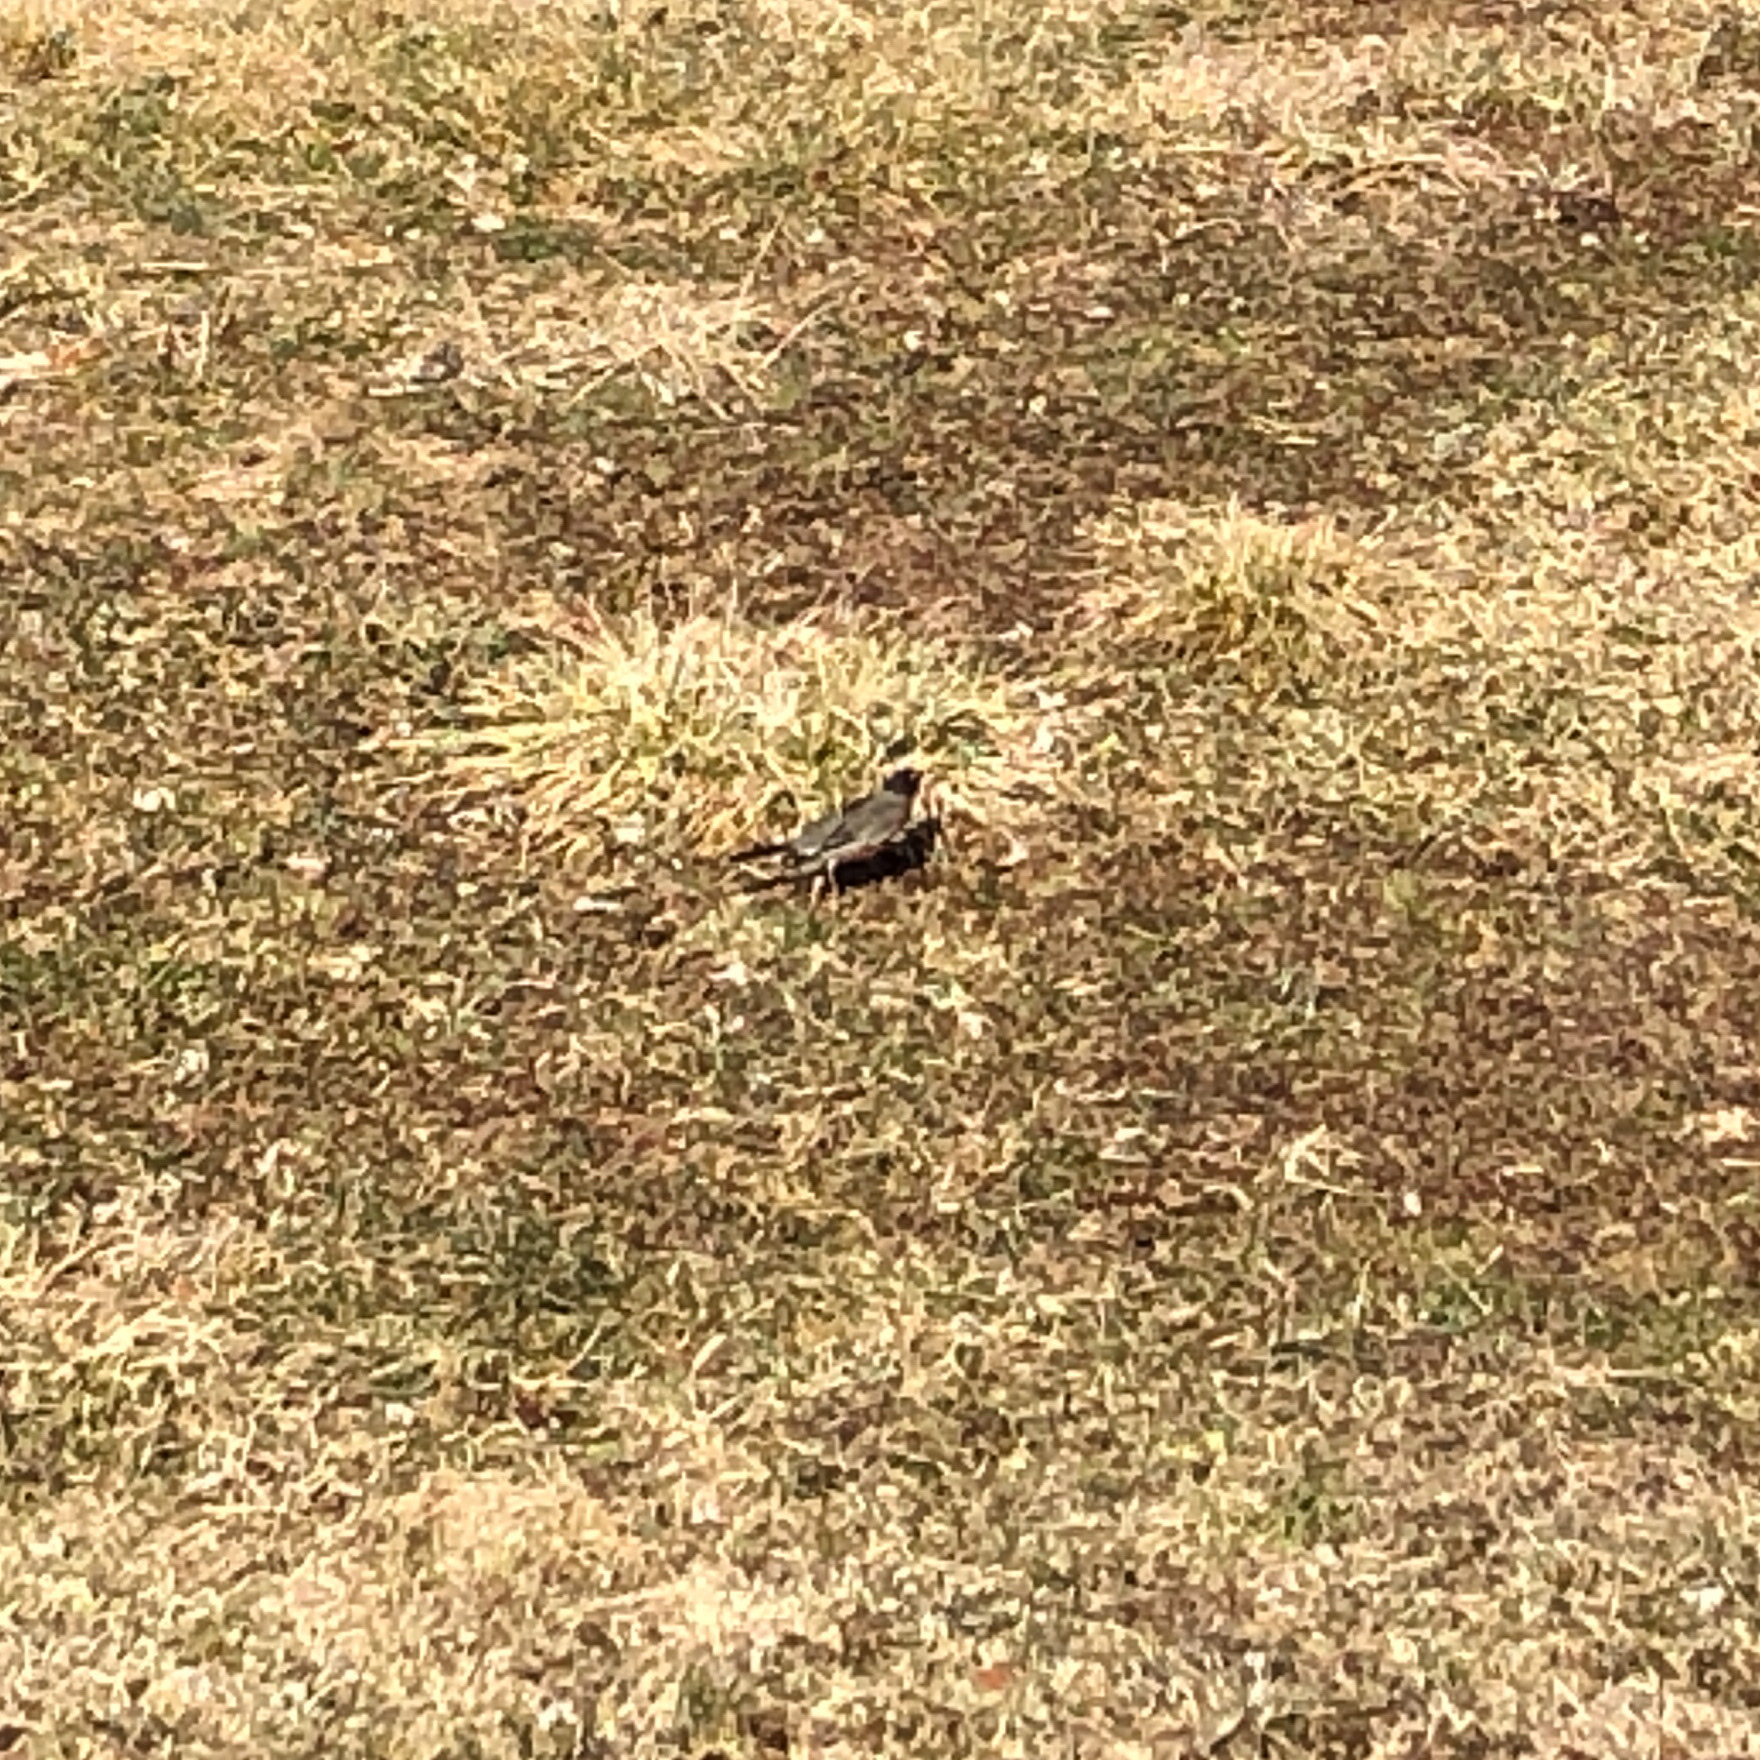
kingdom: Animalia
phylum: Chordata
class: Aves
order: Passeriformes
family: Turdidae
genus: Turdus
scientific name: Turdus migratorius
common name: American robin
